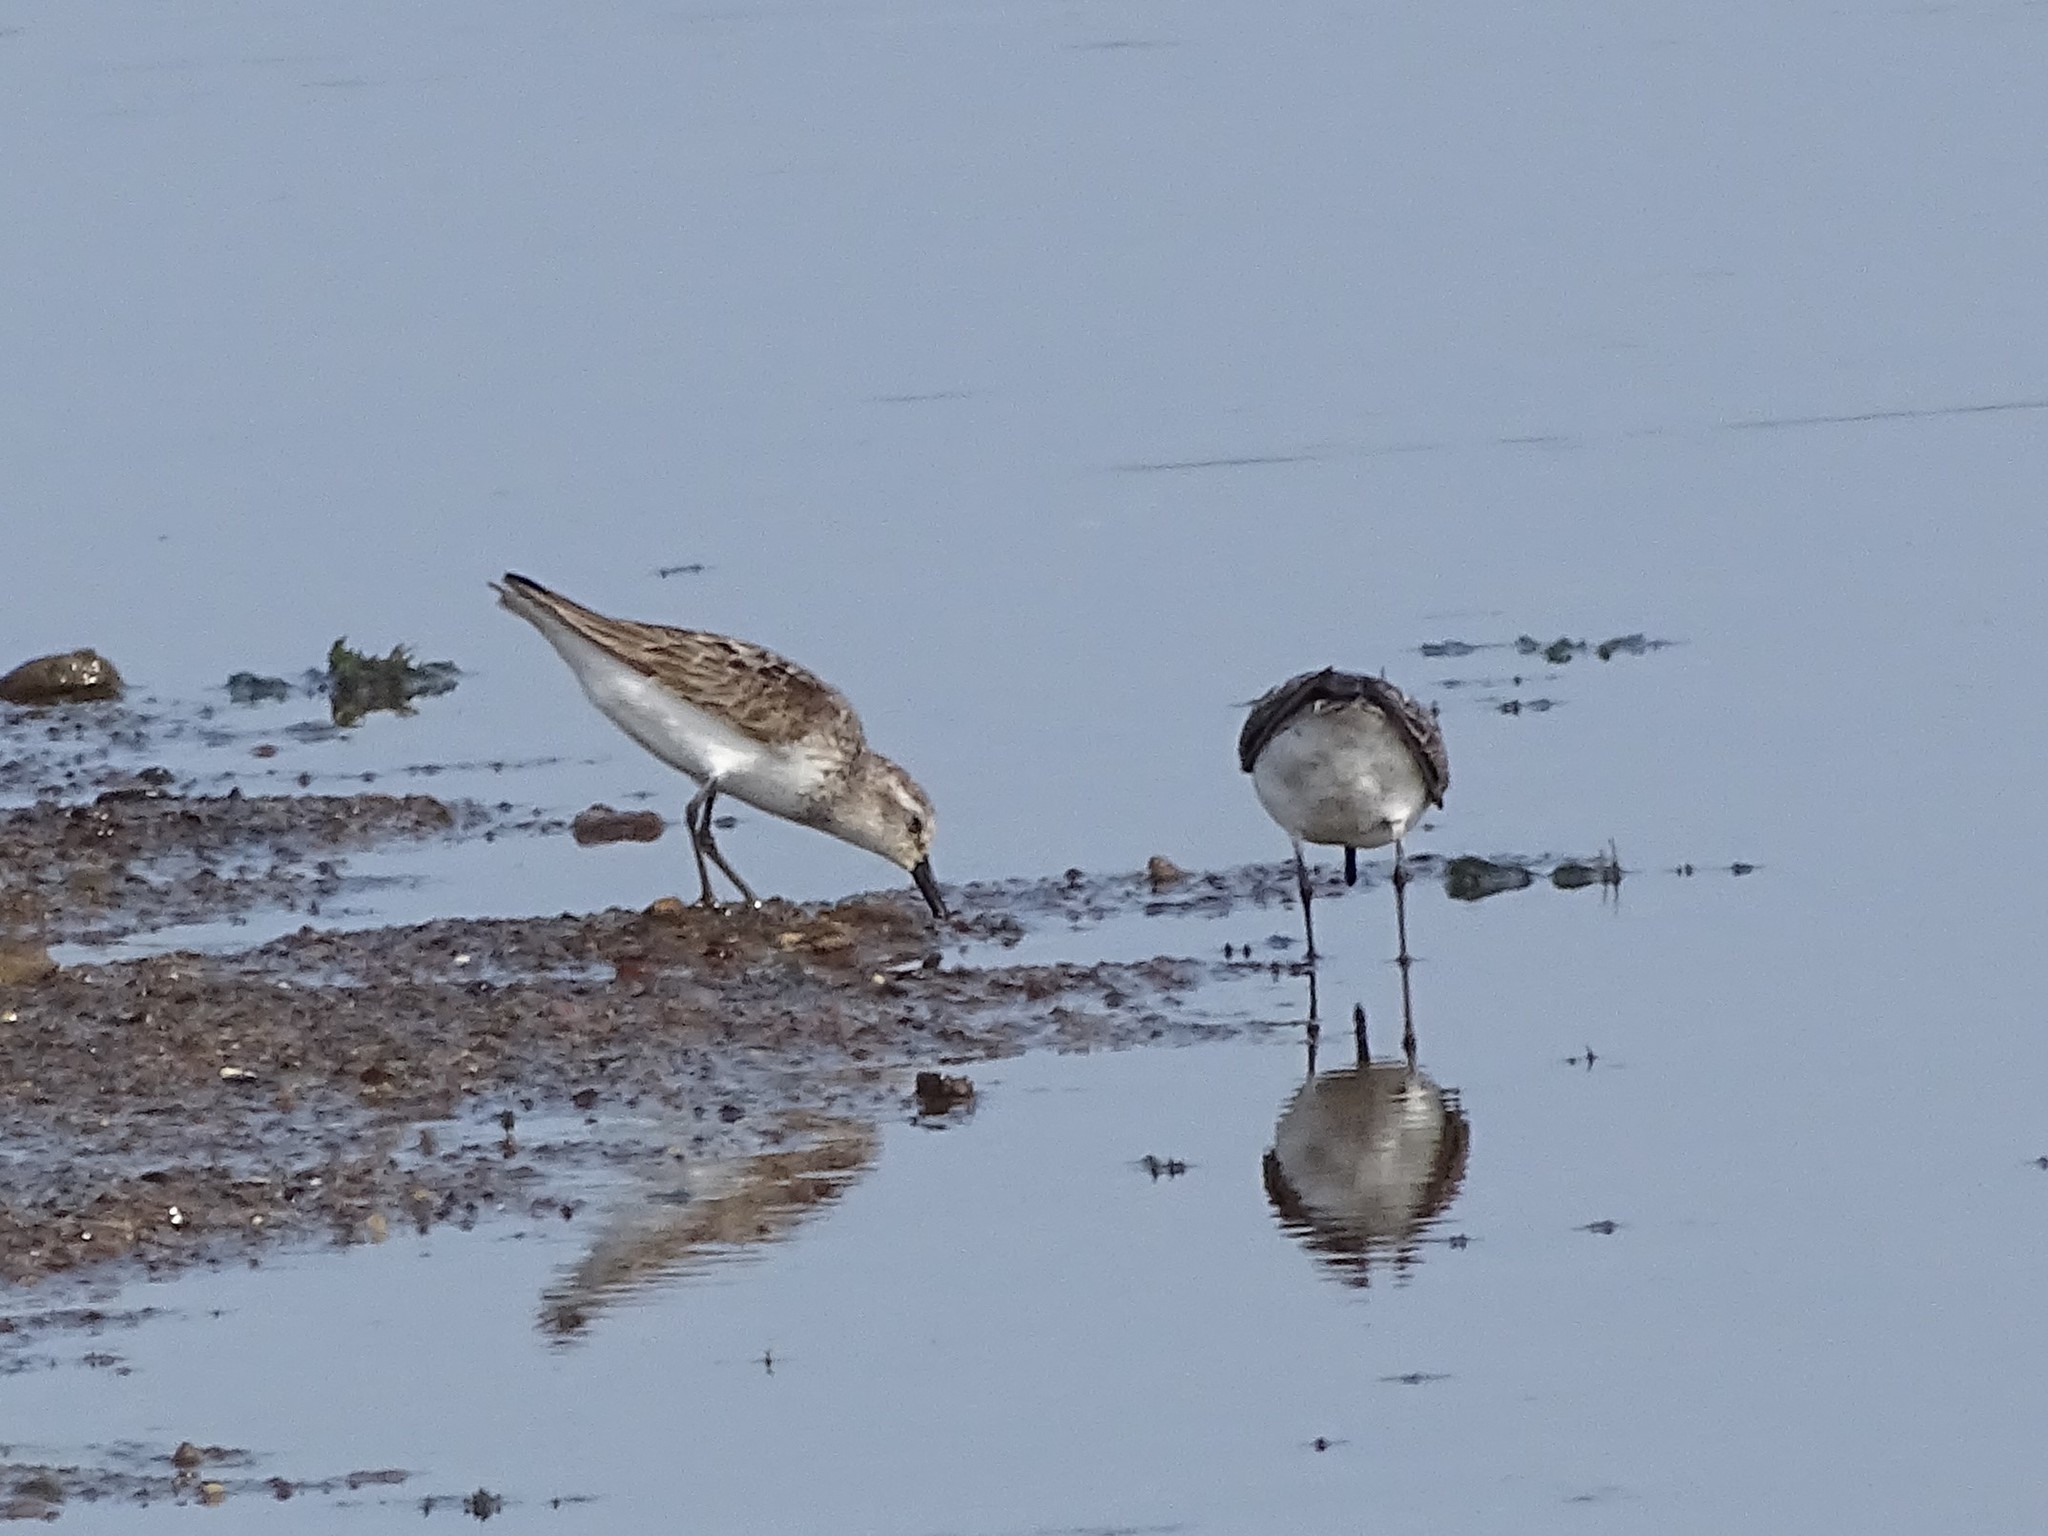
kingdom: Animalia
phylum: Chordata
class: Aves
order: Charadriiformes
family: Scolopacidae
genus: Calidris
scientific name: Calidris pusilla
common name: Semipalmated sandpiper
